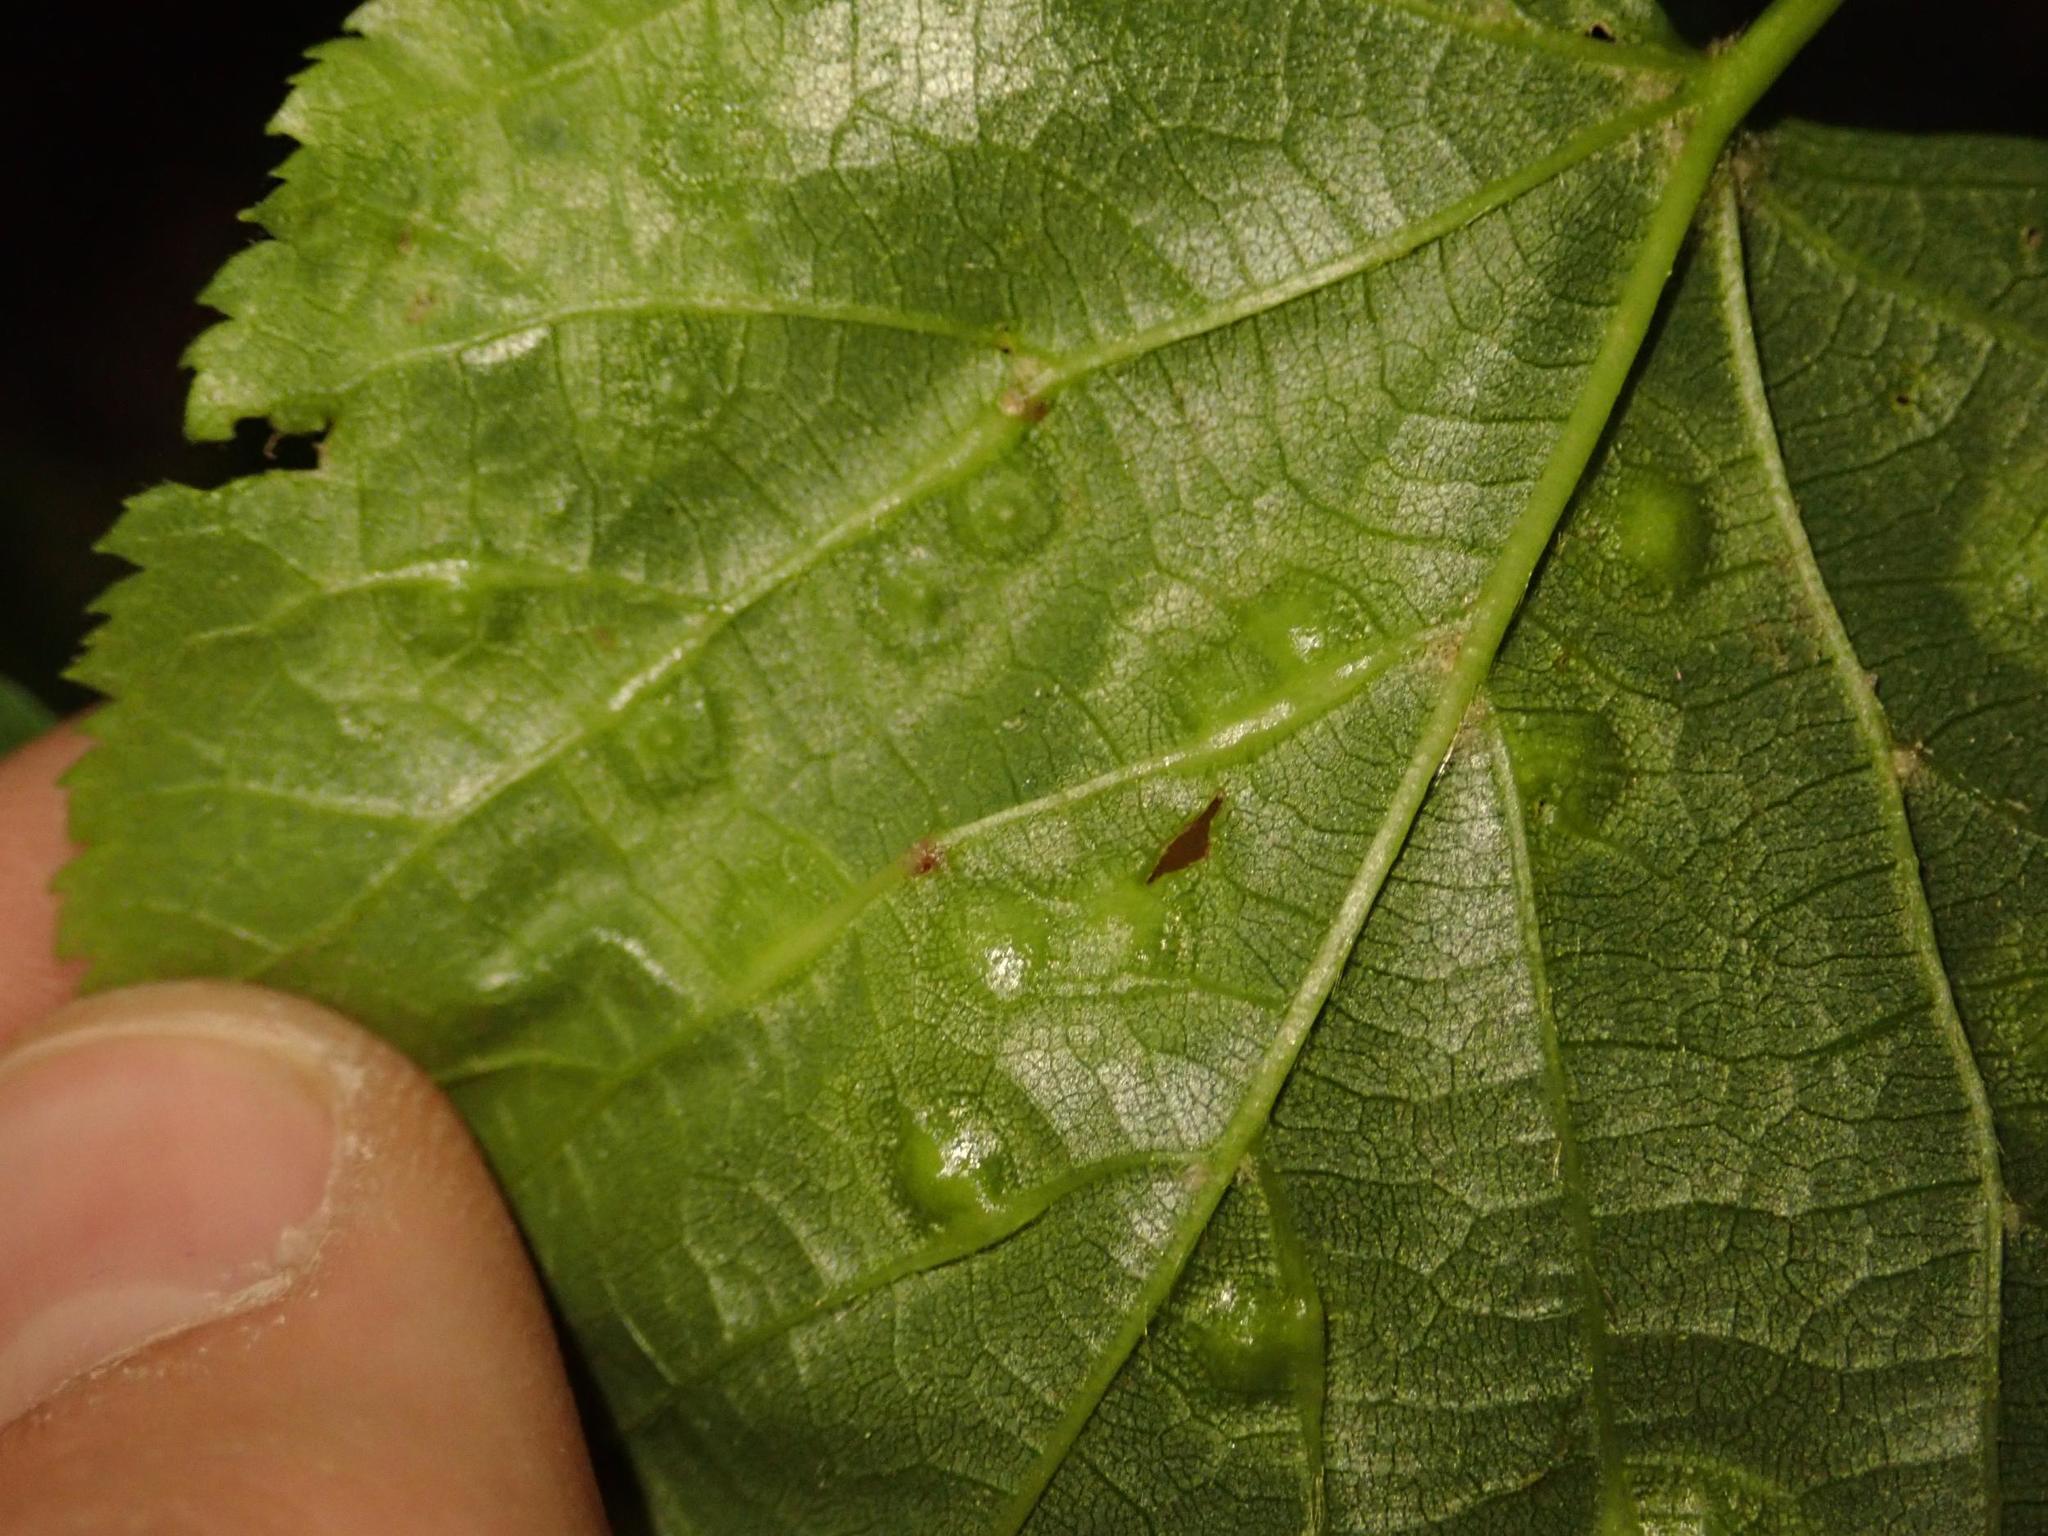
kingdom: Animalia
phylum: Arthropoda
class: Insecta
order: Diptera
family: Cecidomyiidae
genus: Didymomyia
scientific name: Didymomyia tiliacea
